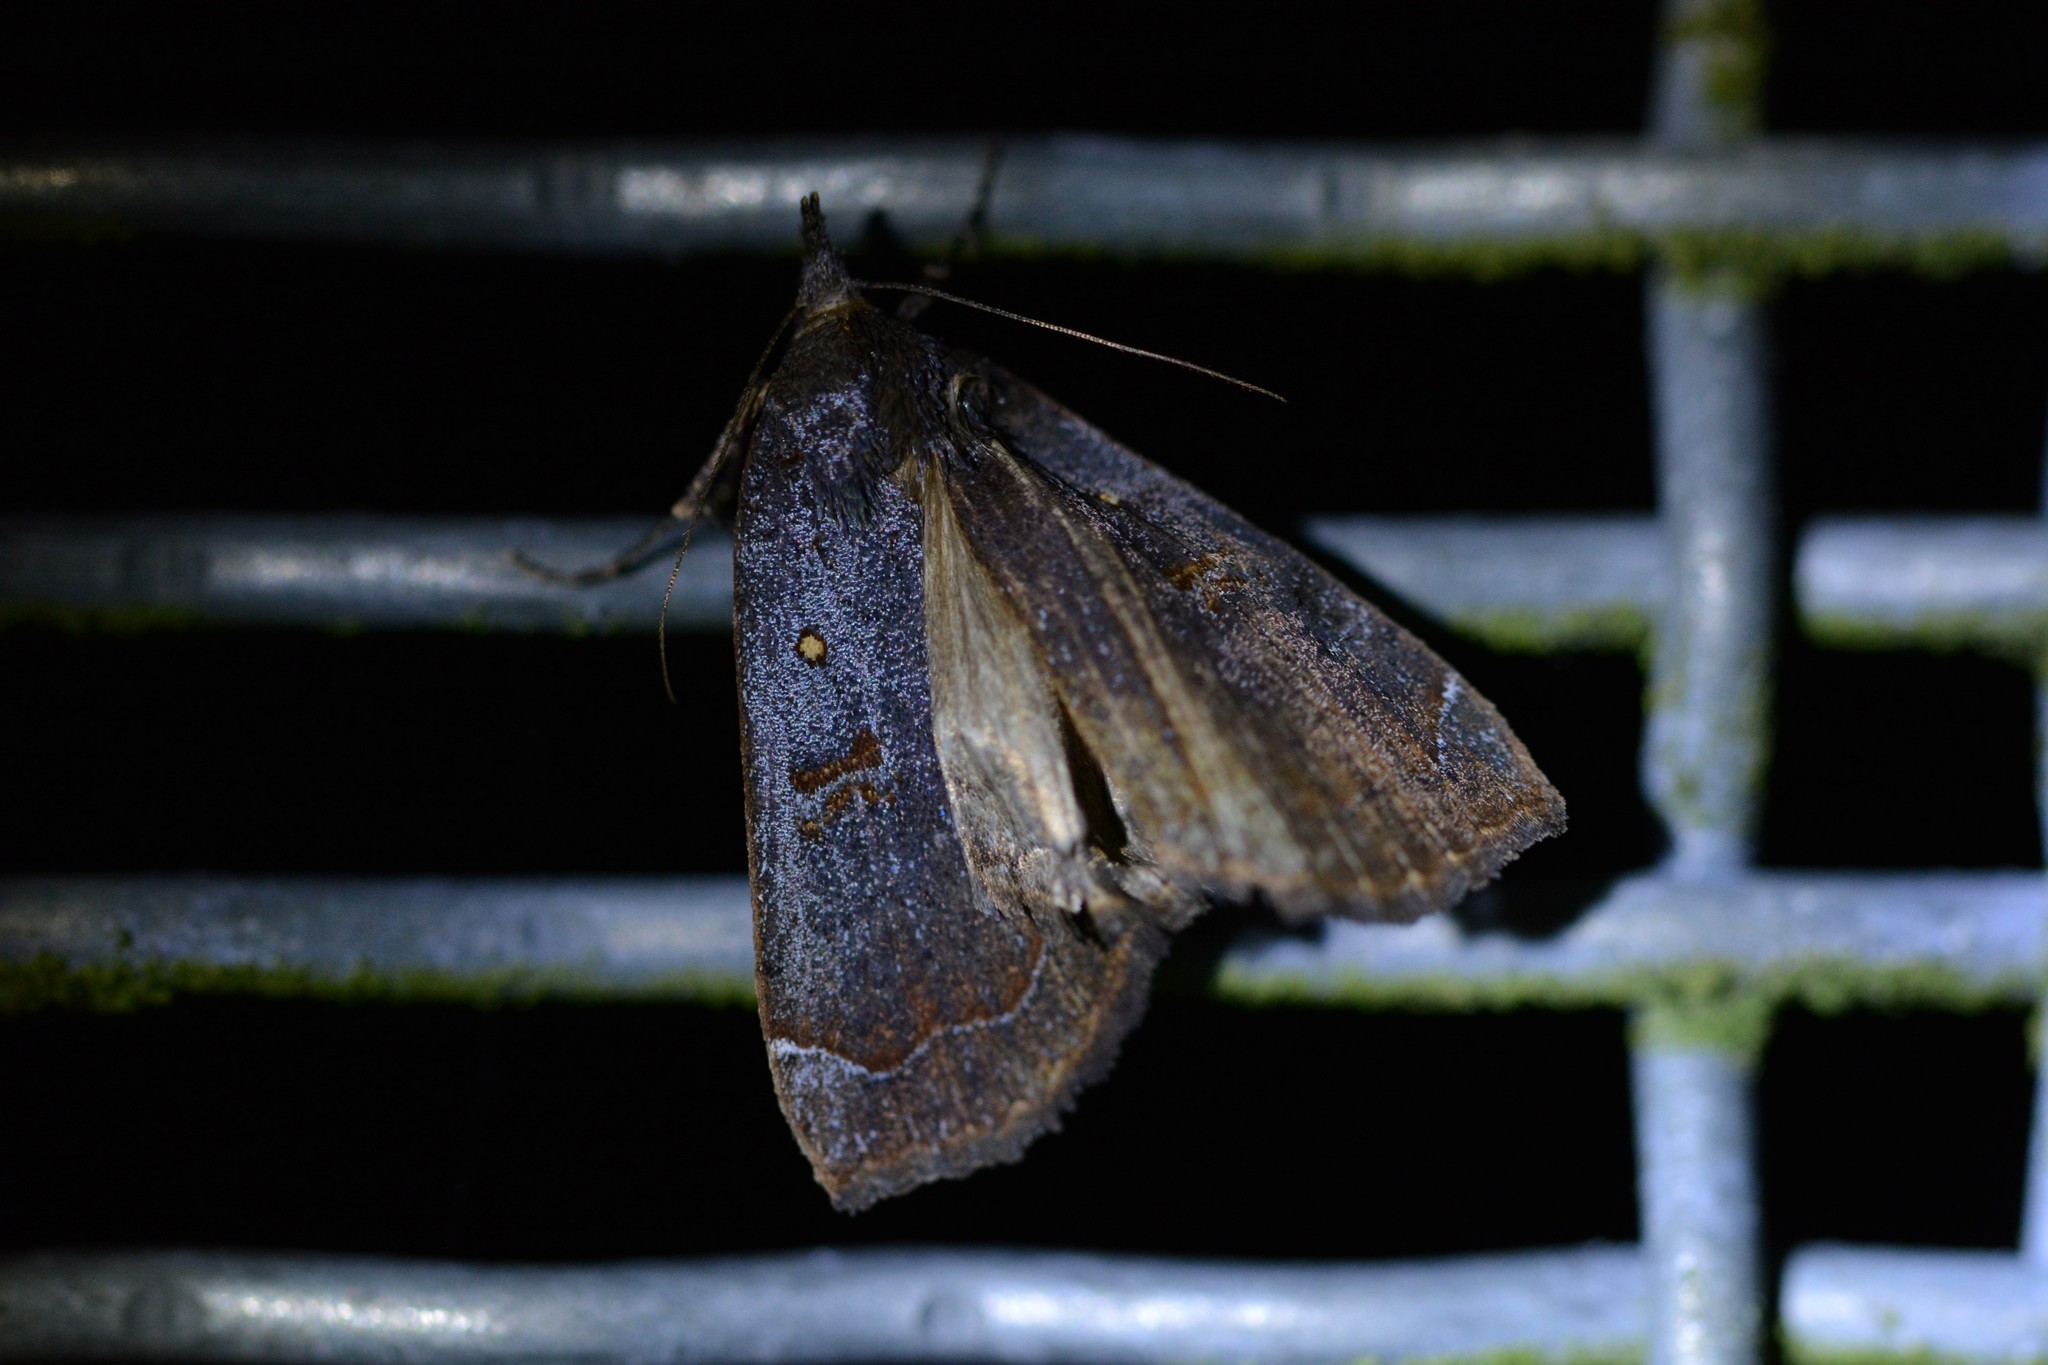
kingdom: Animalia
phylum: Arthropoda
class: Insecta
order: Lepidoptera
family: Erebidae
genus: Rhapsa
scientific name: Rhapsa scotosialis
